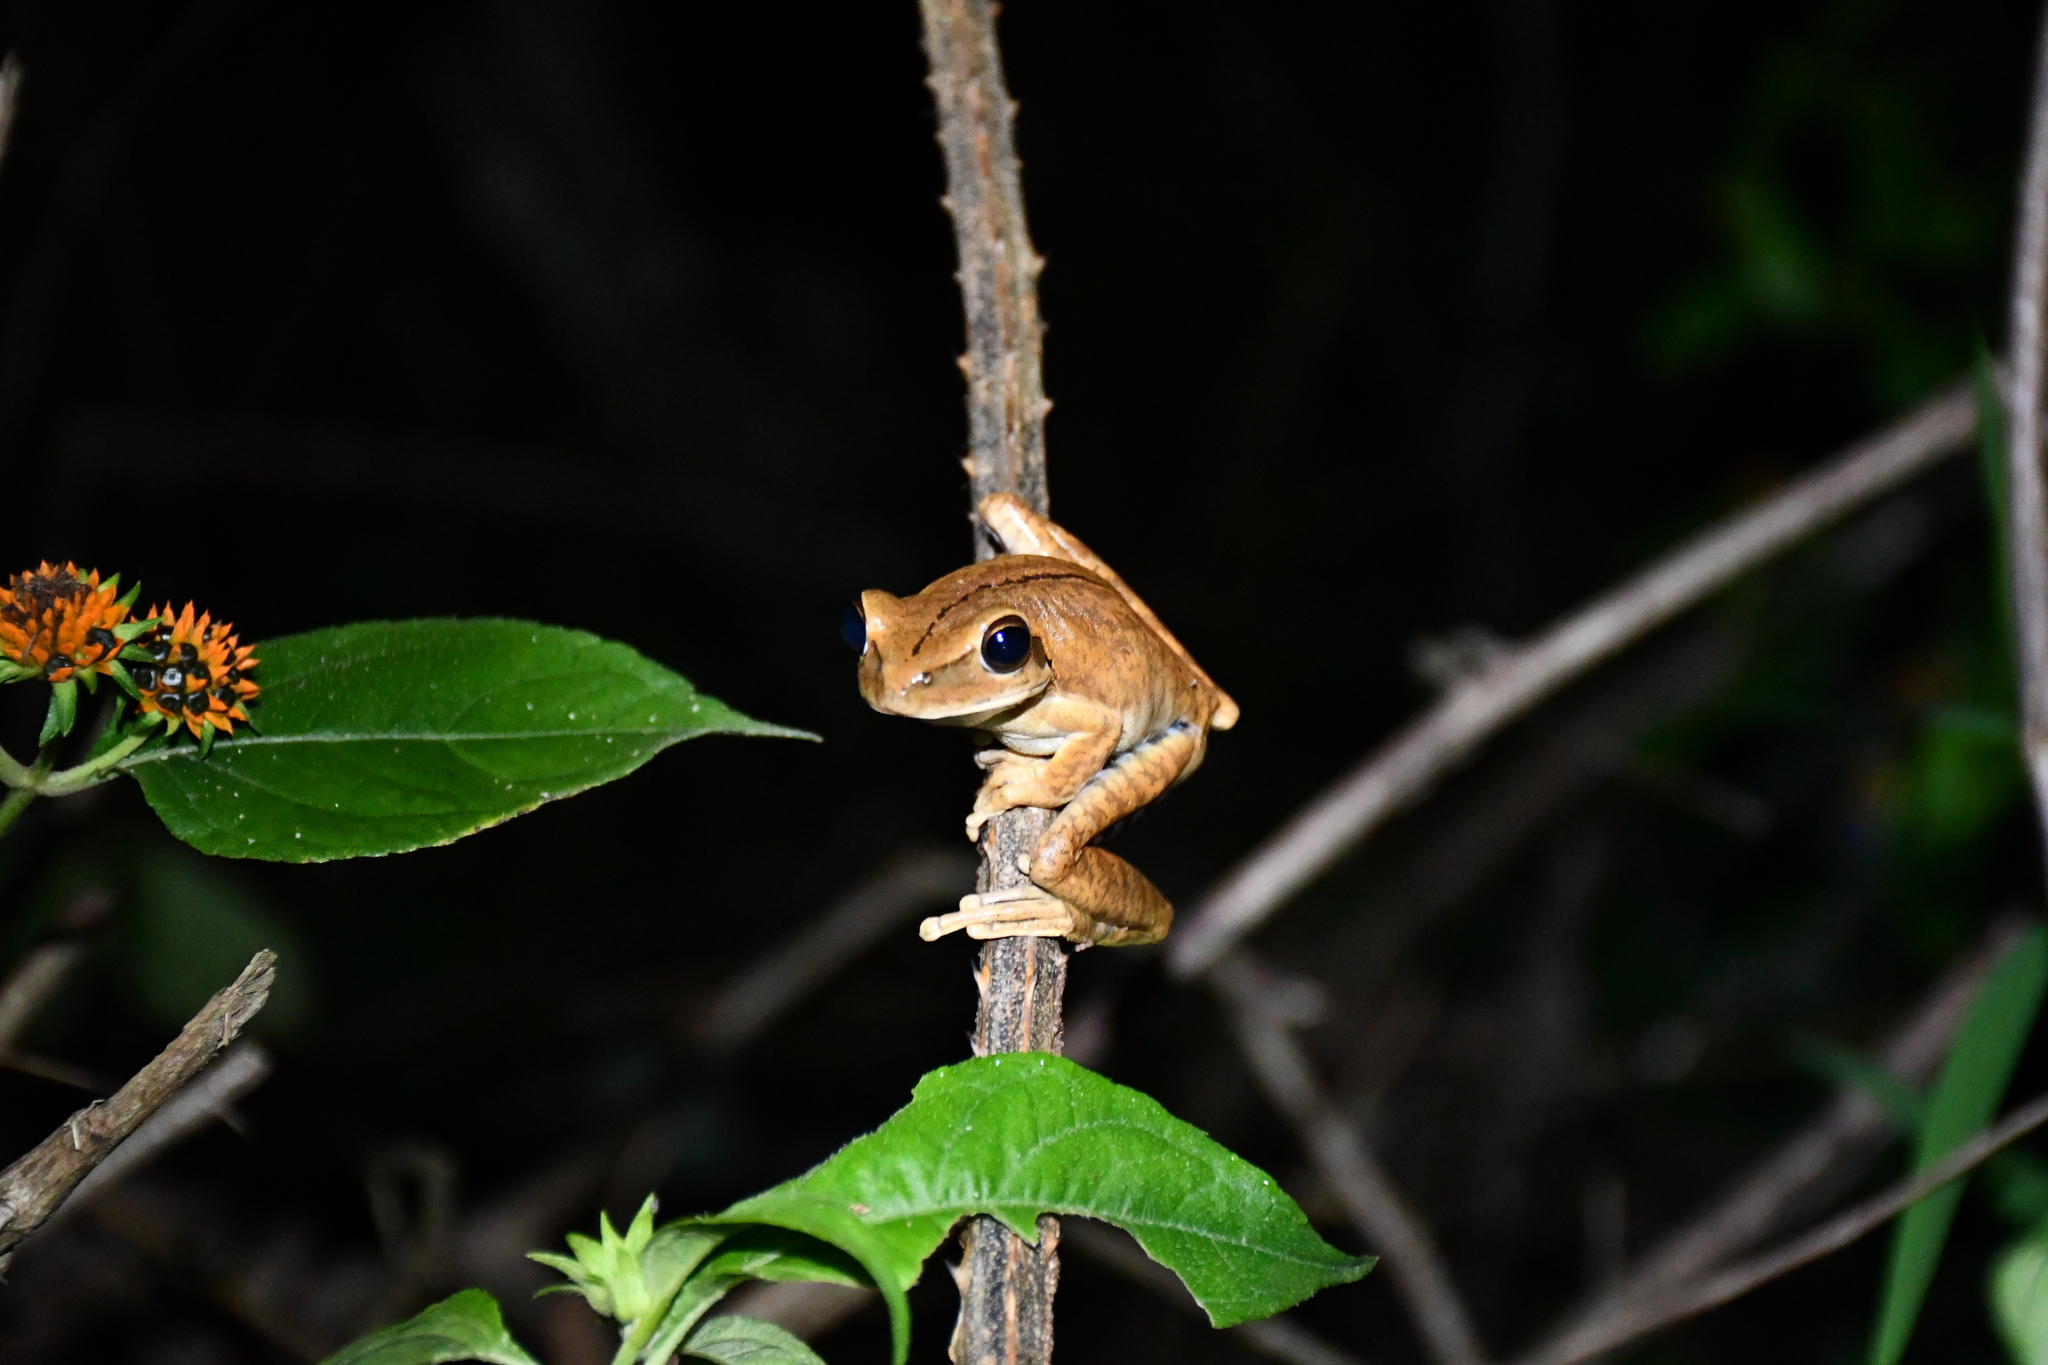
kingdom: Animalia
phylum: Chordata
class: Amphibia
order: Anura
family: Hylidae
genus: Boana
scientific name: Boana raniceps
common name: Chaco treefrog
